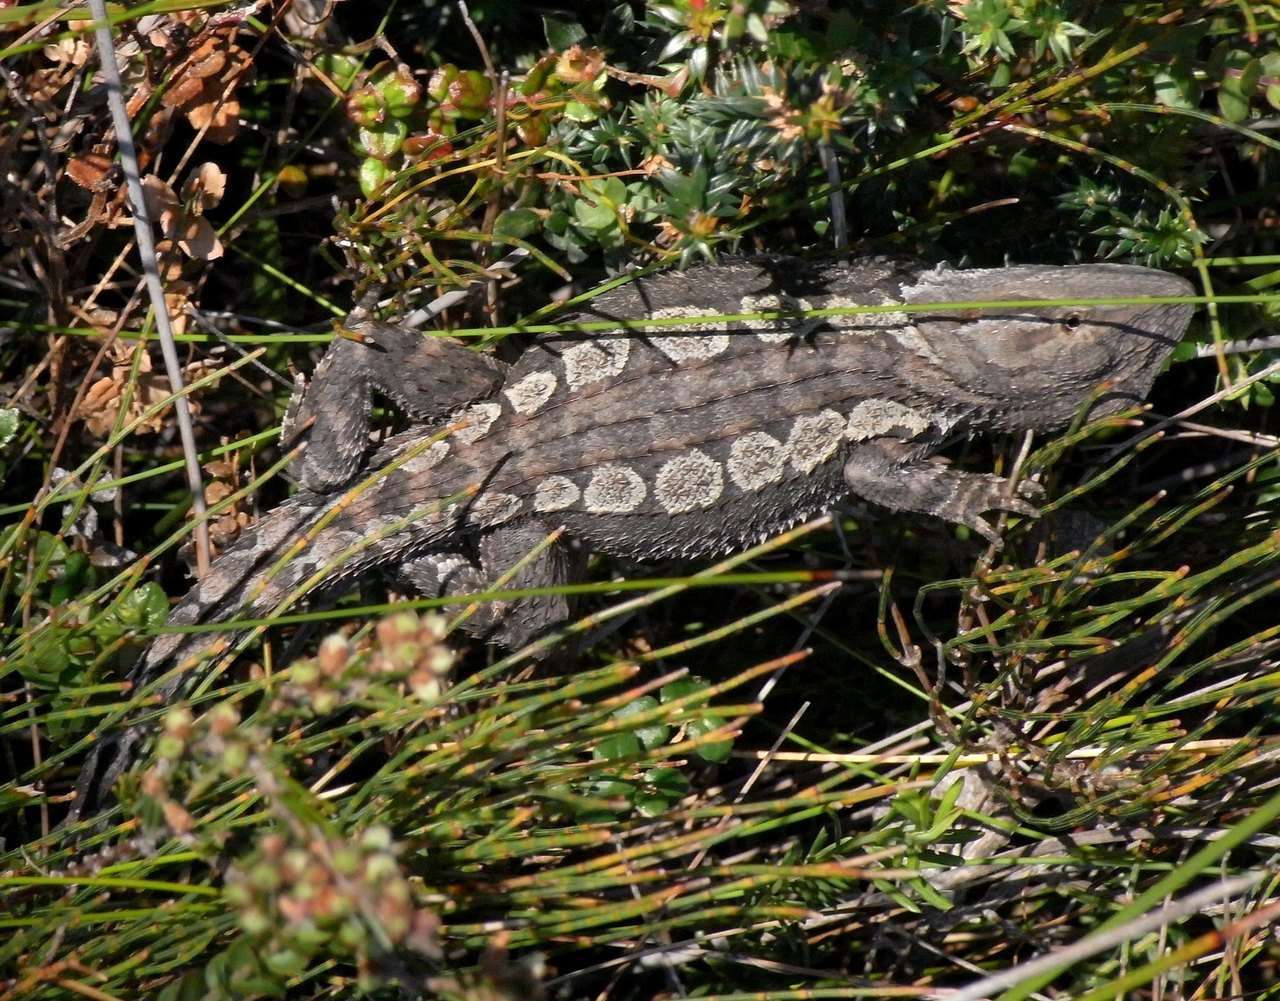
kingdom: Animalia
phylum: Chordata
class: Squamata
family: Agamidae
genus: Amphibolurus
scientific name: Amphibolurus muricatus
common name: Jacky lizard
